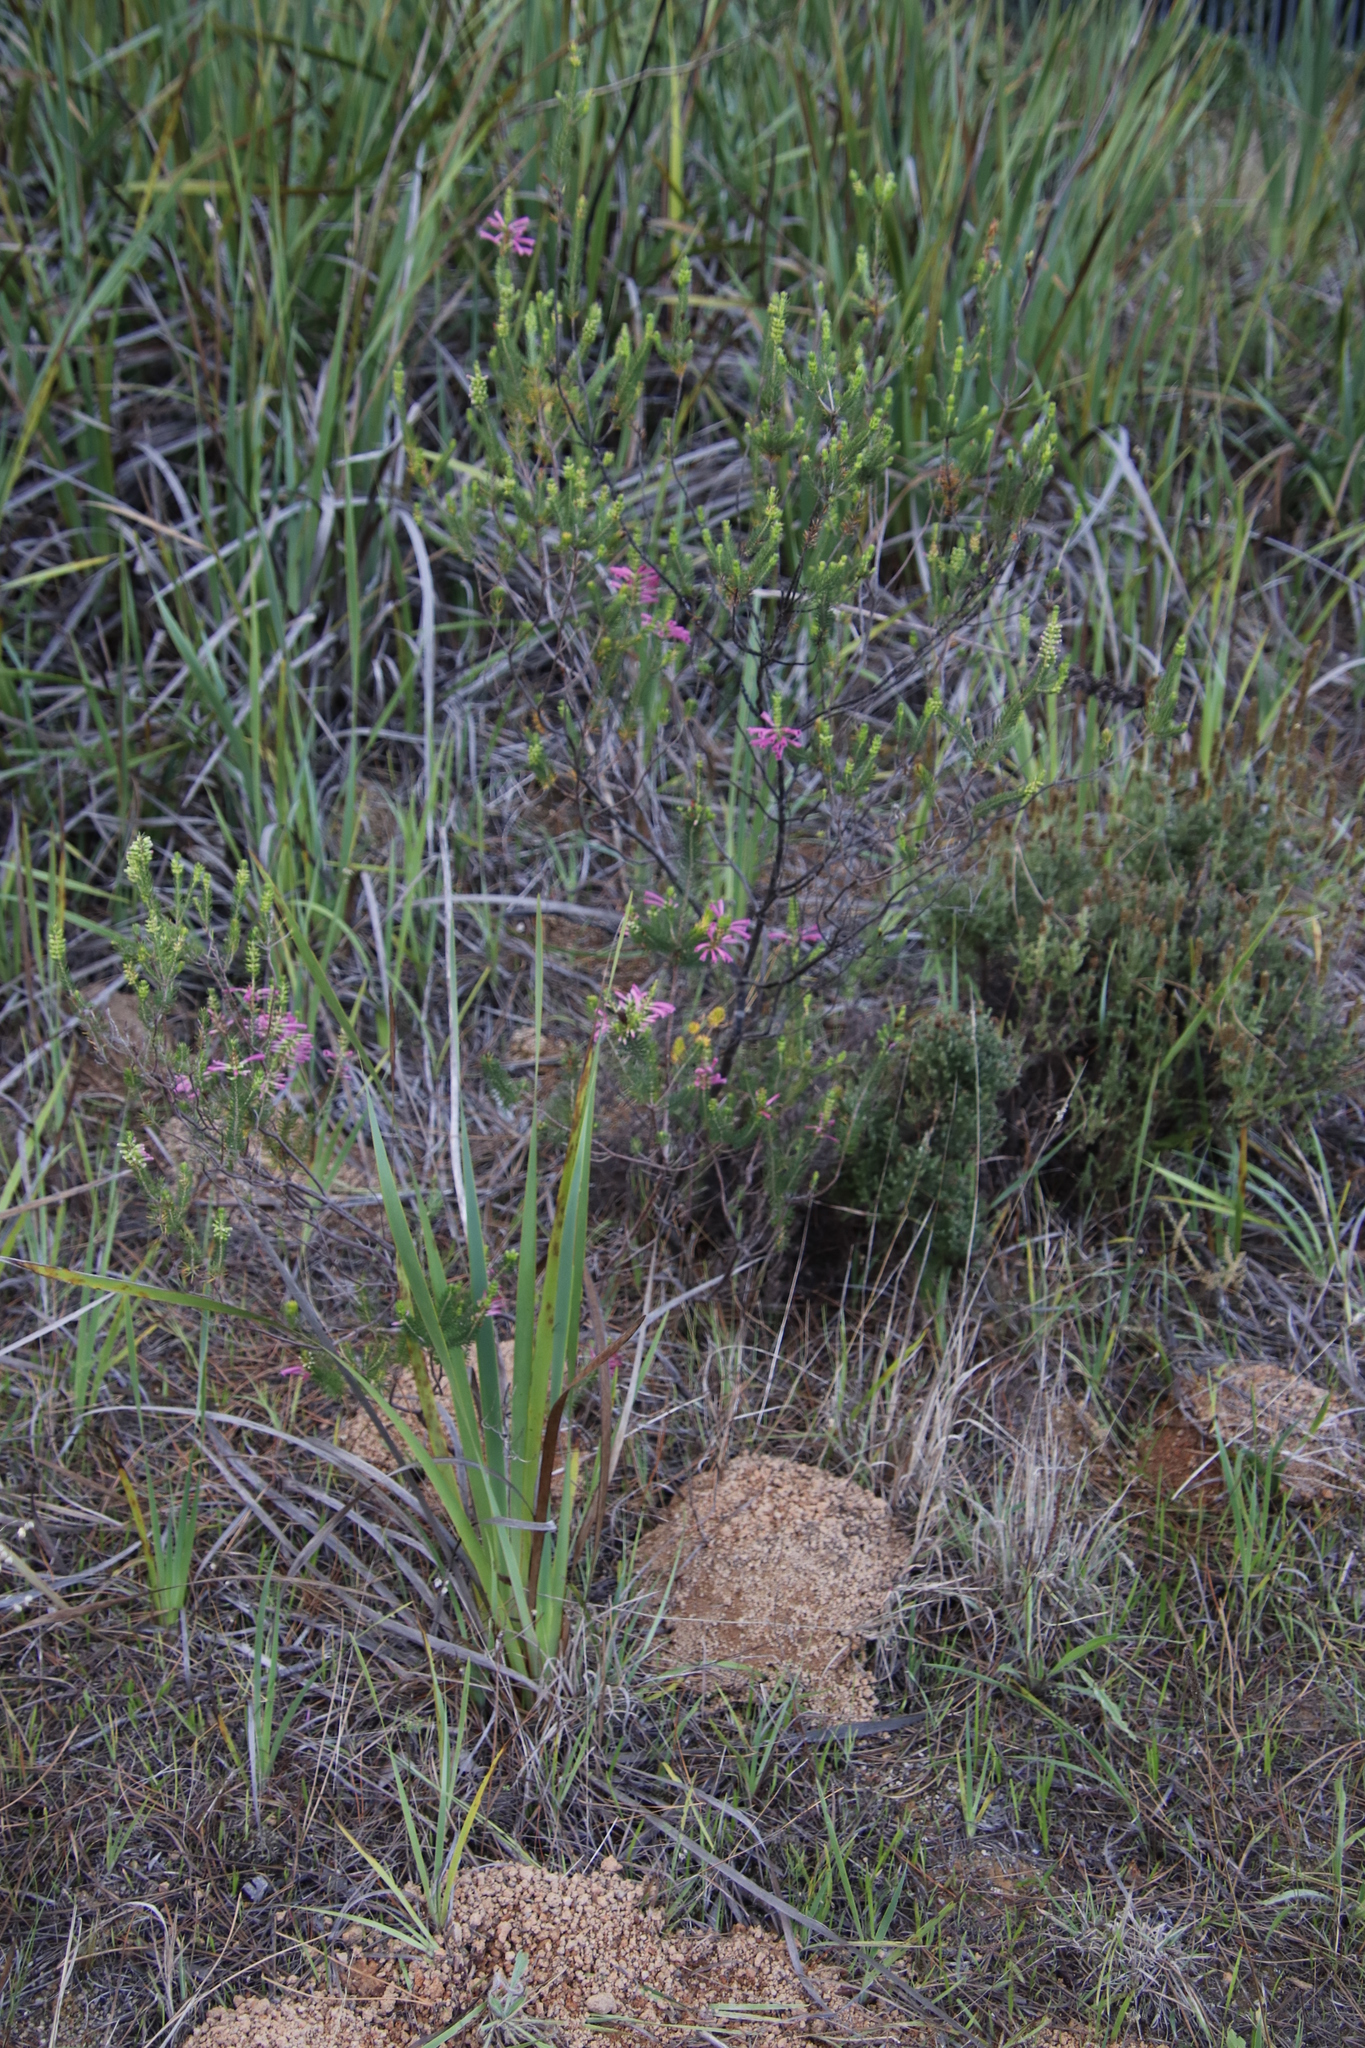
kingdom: Plantae
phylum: Tracheophyta
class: Magnoliopsida
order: Ericales
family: Ericaceae
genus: Erica
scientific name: Erica abietina
